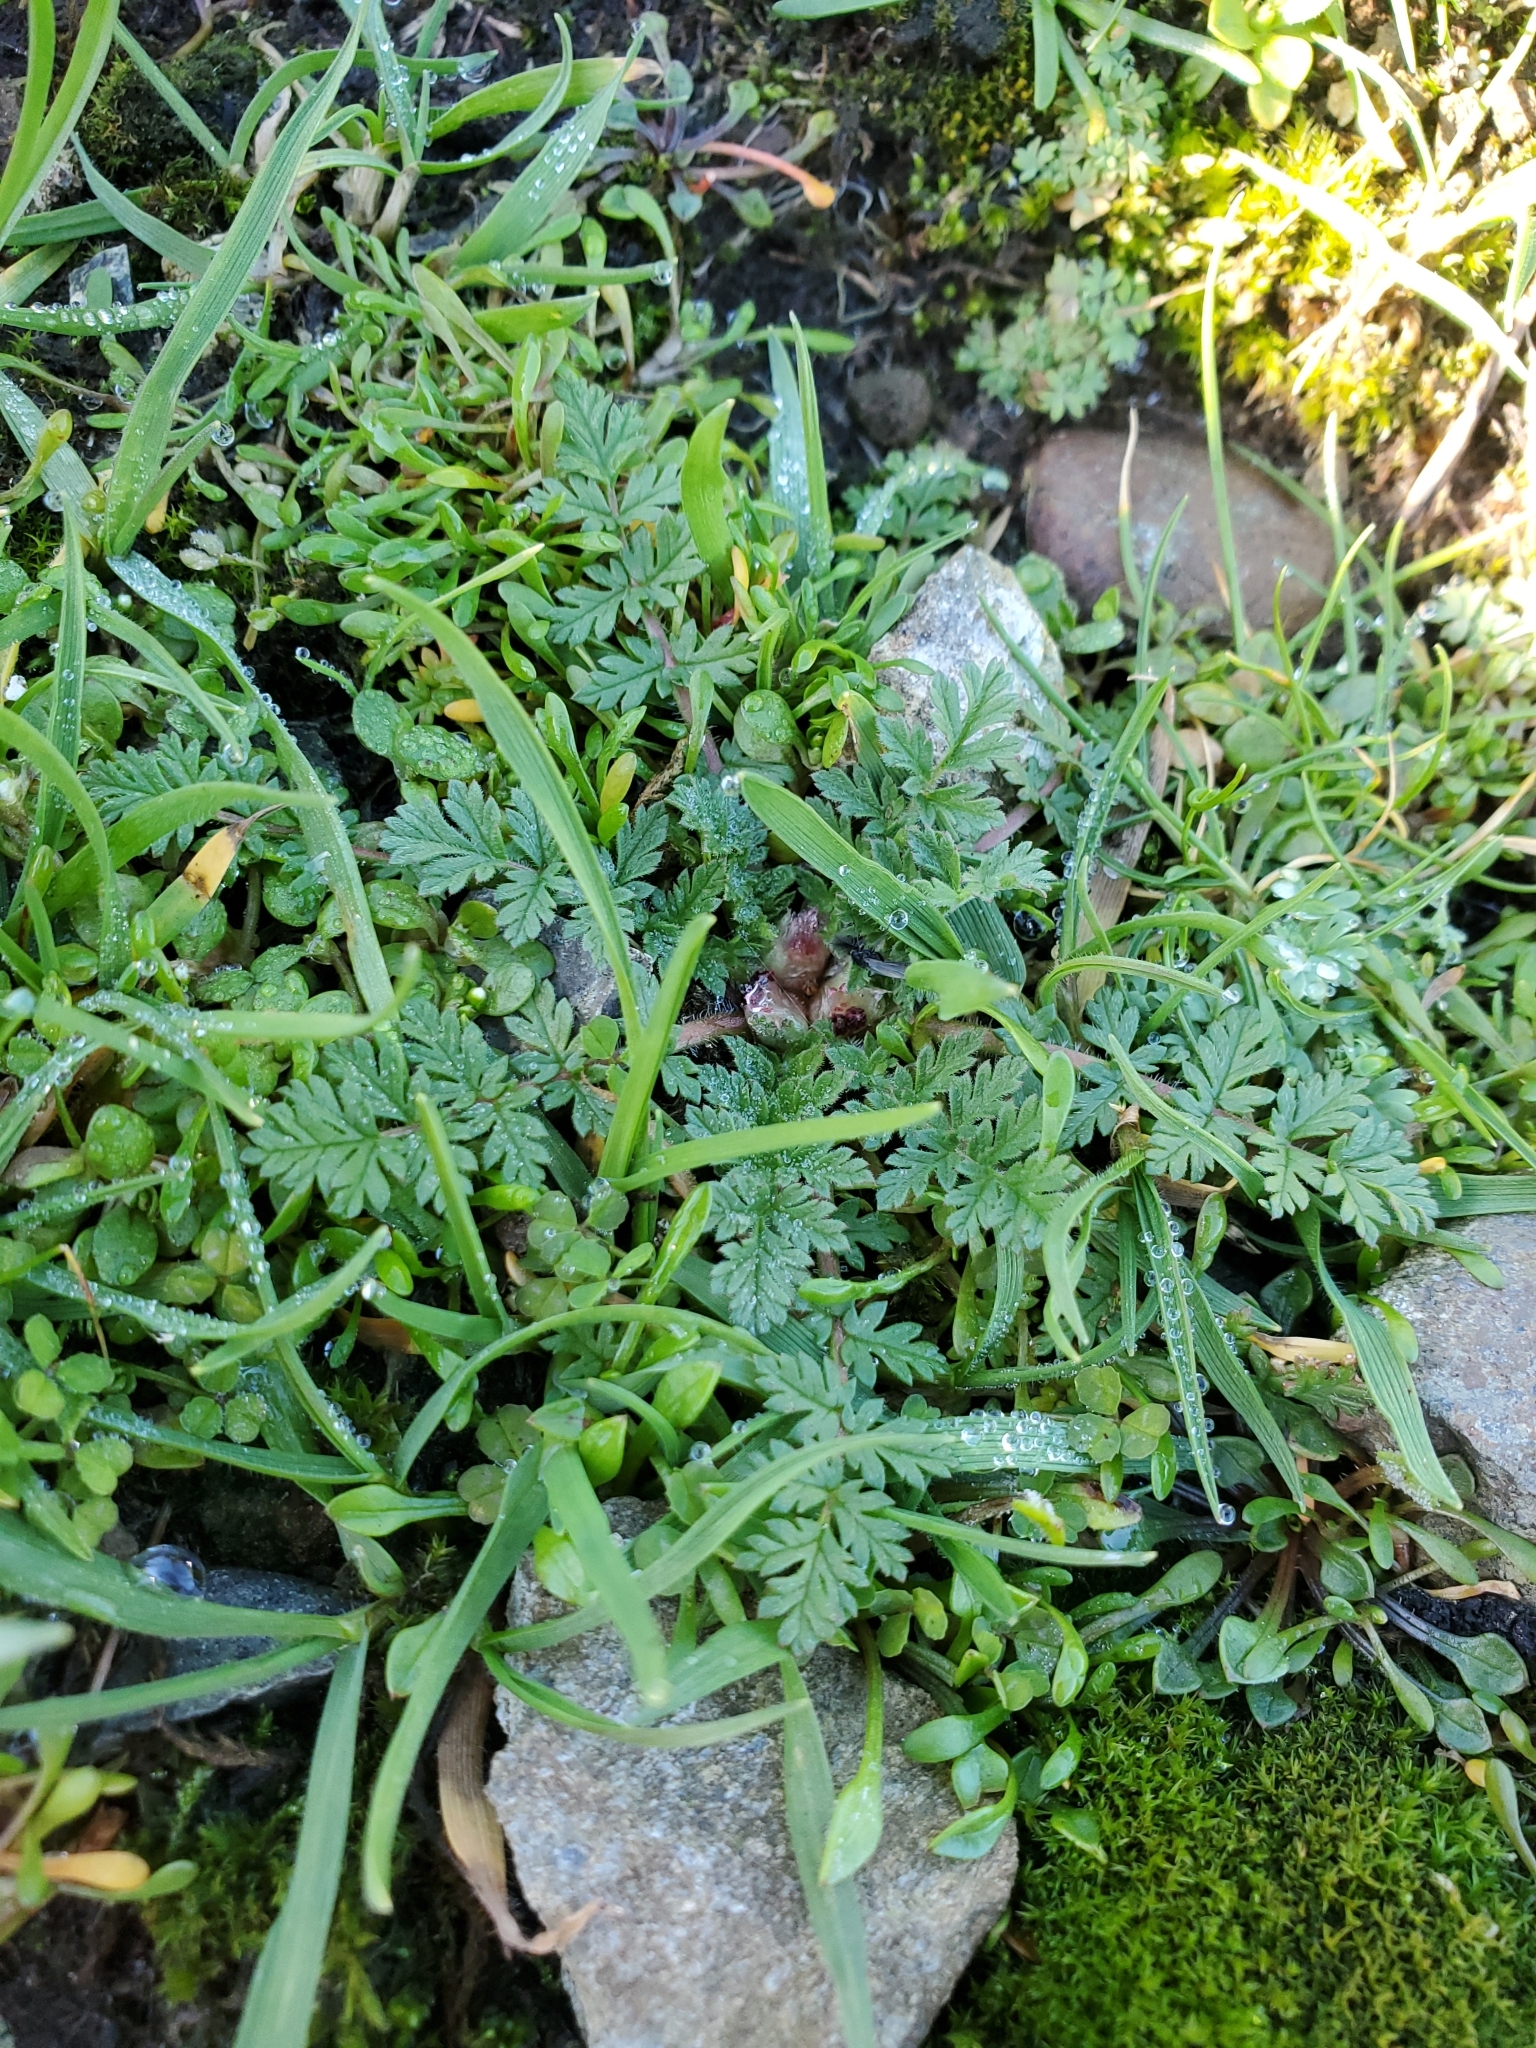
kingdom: Plantae
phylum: Tracheophyta
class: Magnoliopsida
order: Geraniales
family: Geraniaceae
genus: Erodium
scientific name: Erodium cicutarium
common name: Common stork's-bill
